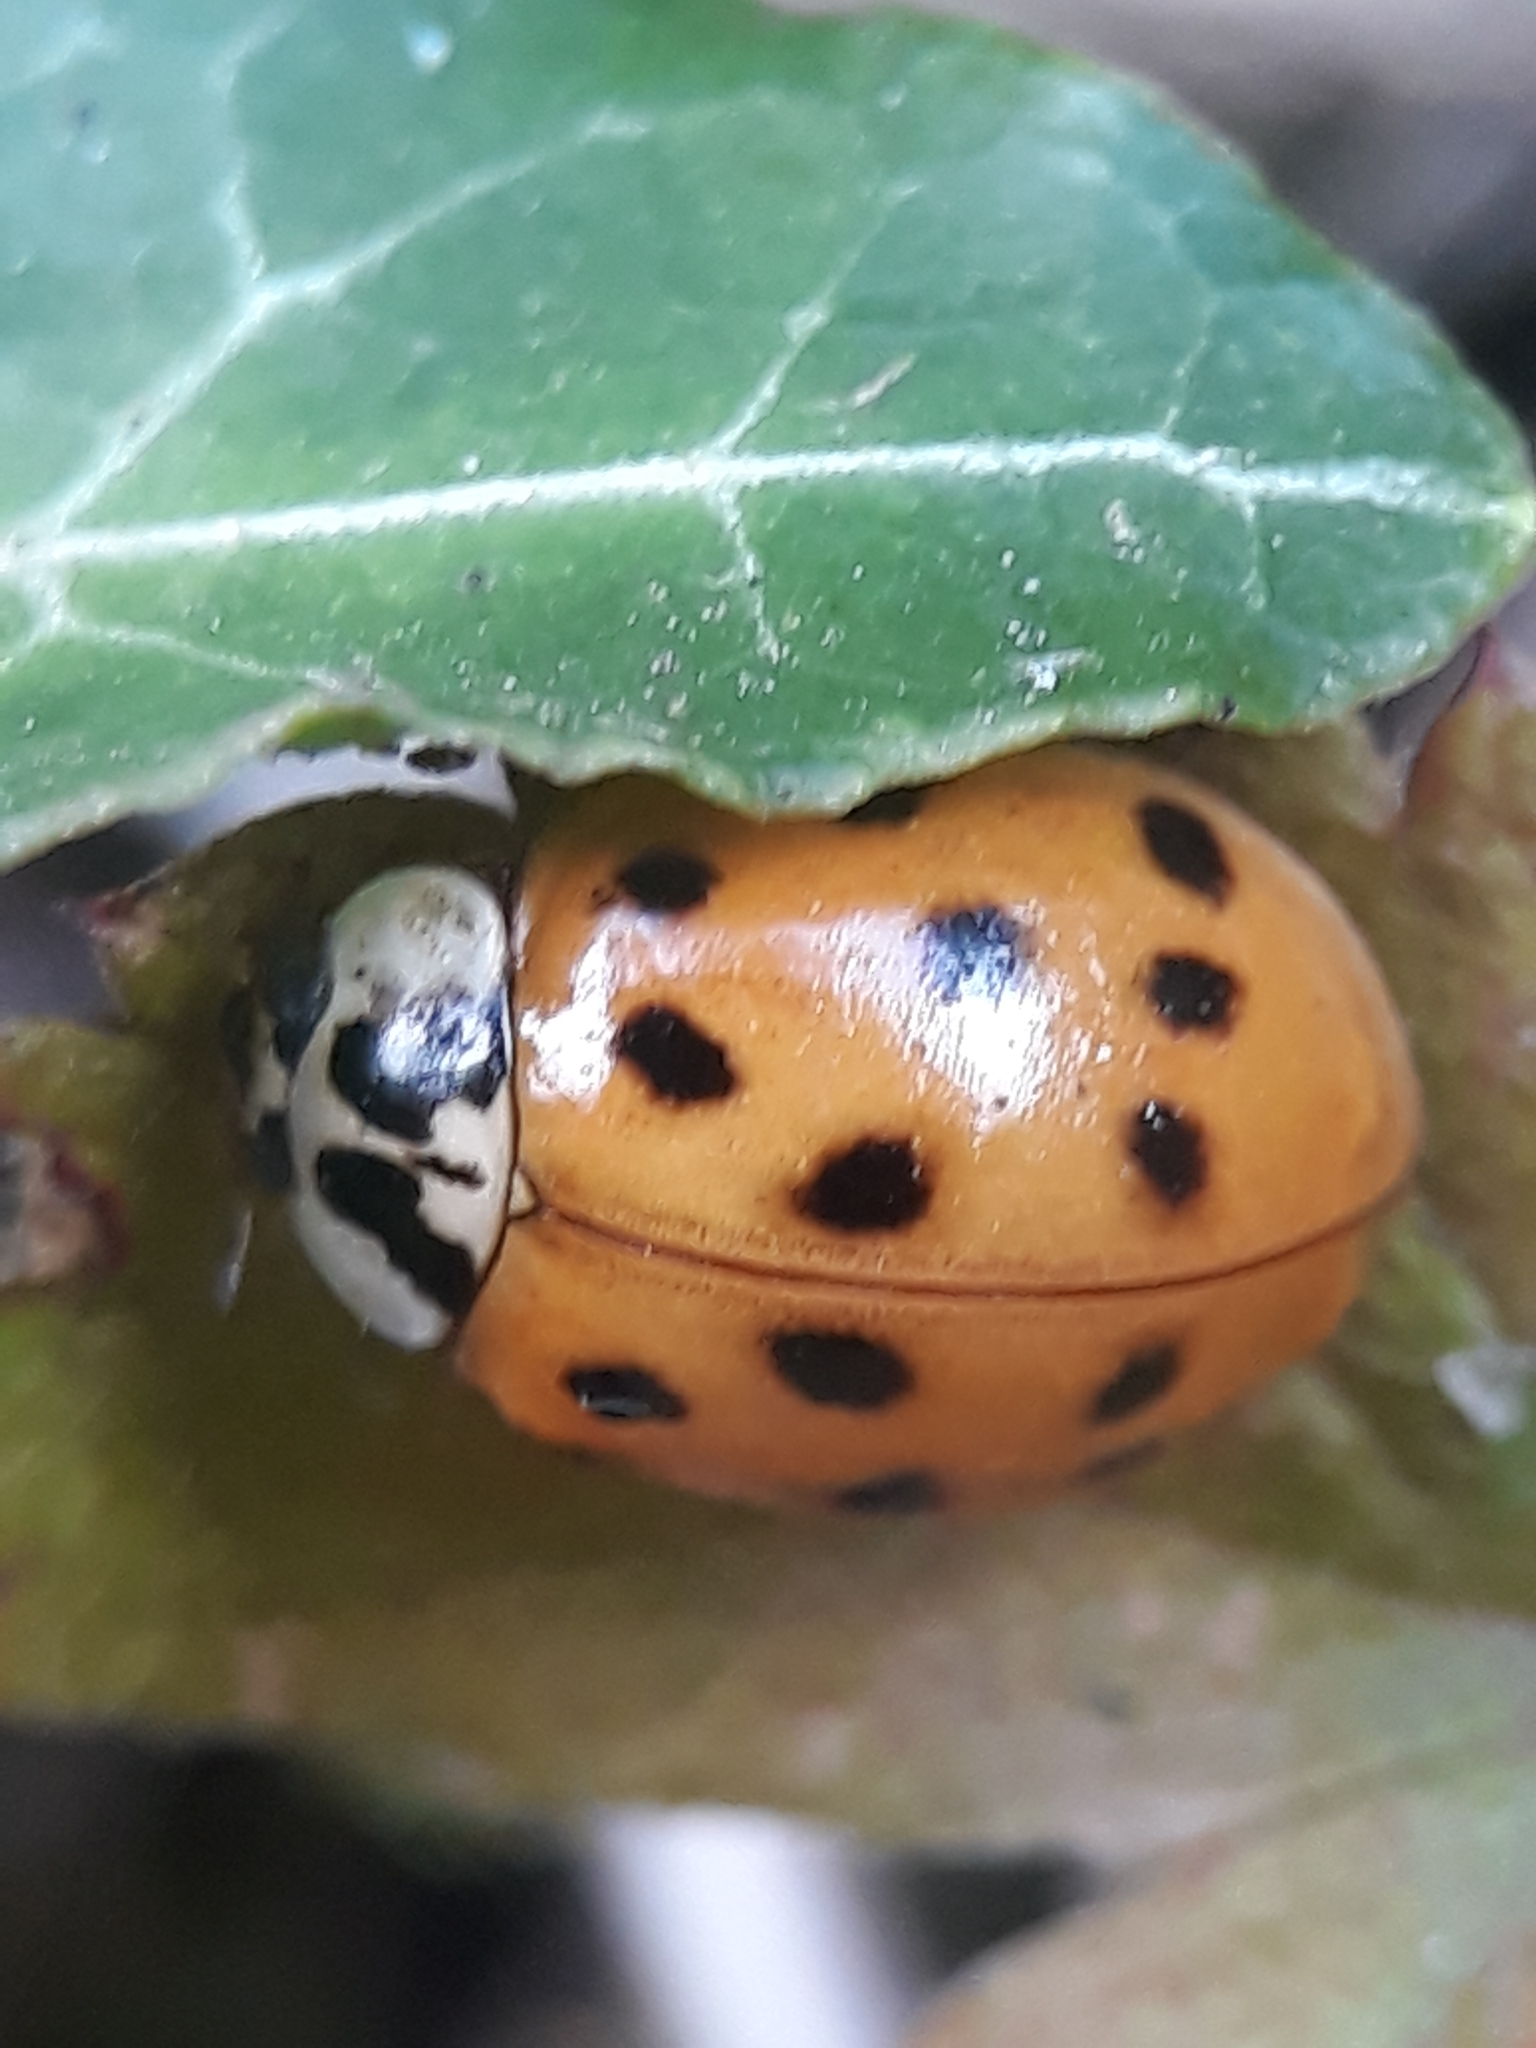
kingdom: Animalia
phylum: Arthropoda
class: Insecta
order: Coleoptera
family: Coccinellidae
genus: Harmonia
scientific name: Harmonia axyridis
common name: Harlequin ladybird
